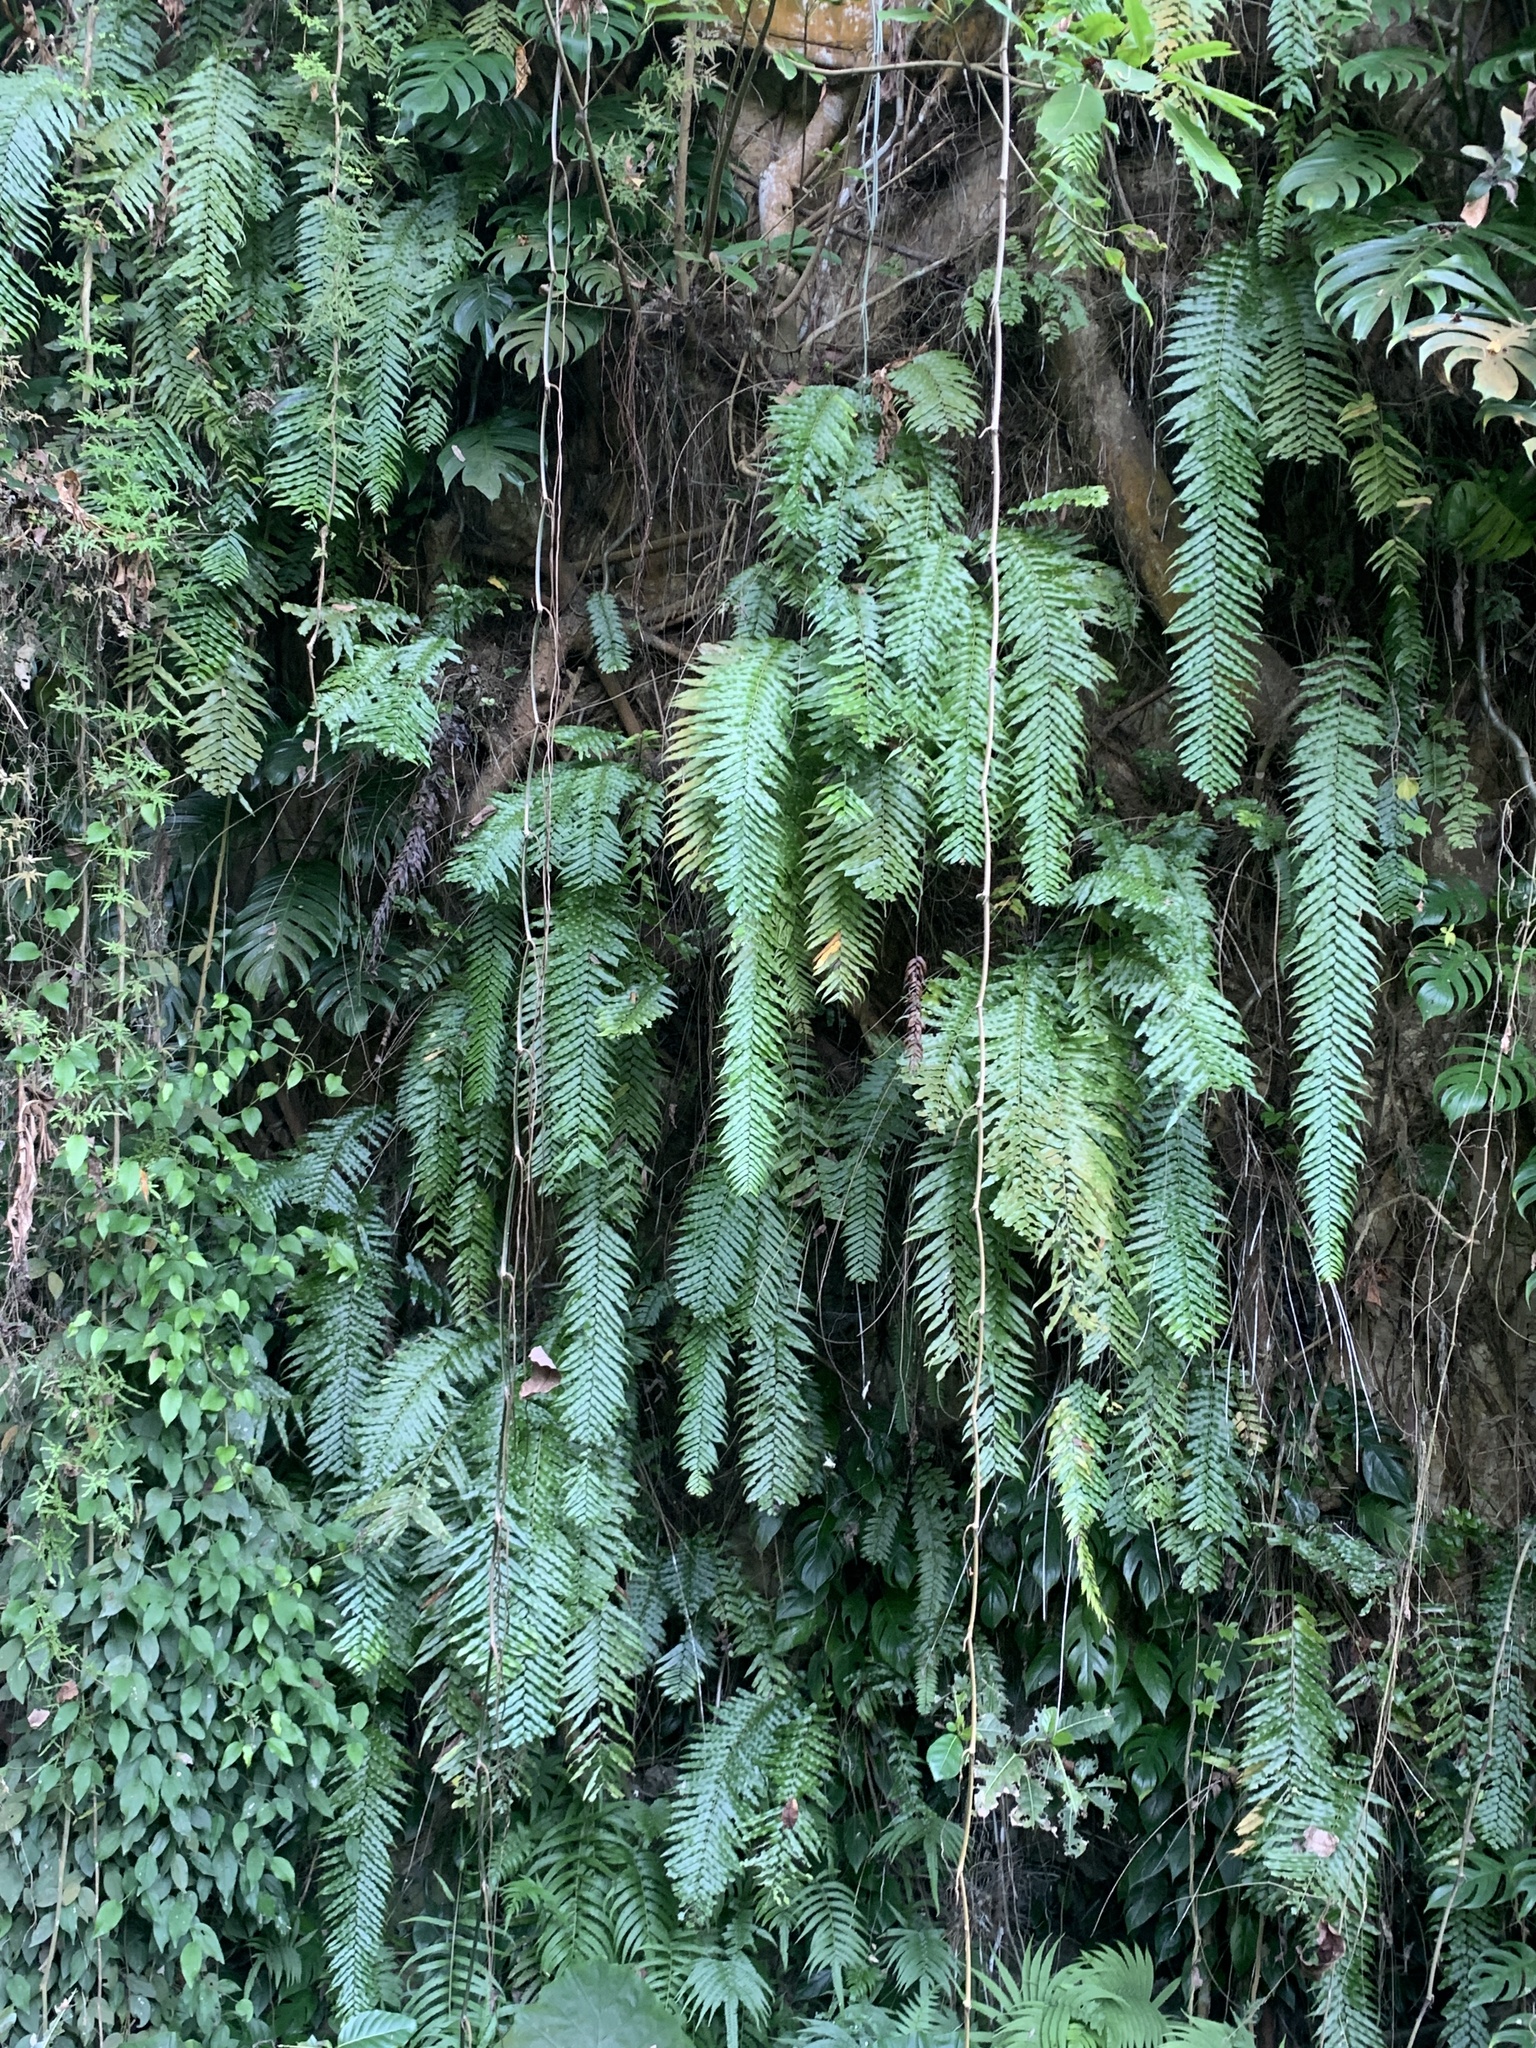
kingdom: Plantae
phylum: Tracheophyta
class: Polypodiopsida
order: Polypodiales
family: Nephrolepidaceae
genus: Nephrolepis
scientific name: Nephrolepis biserrata
